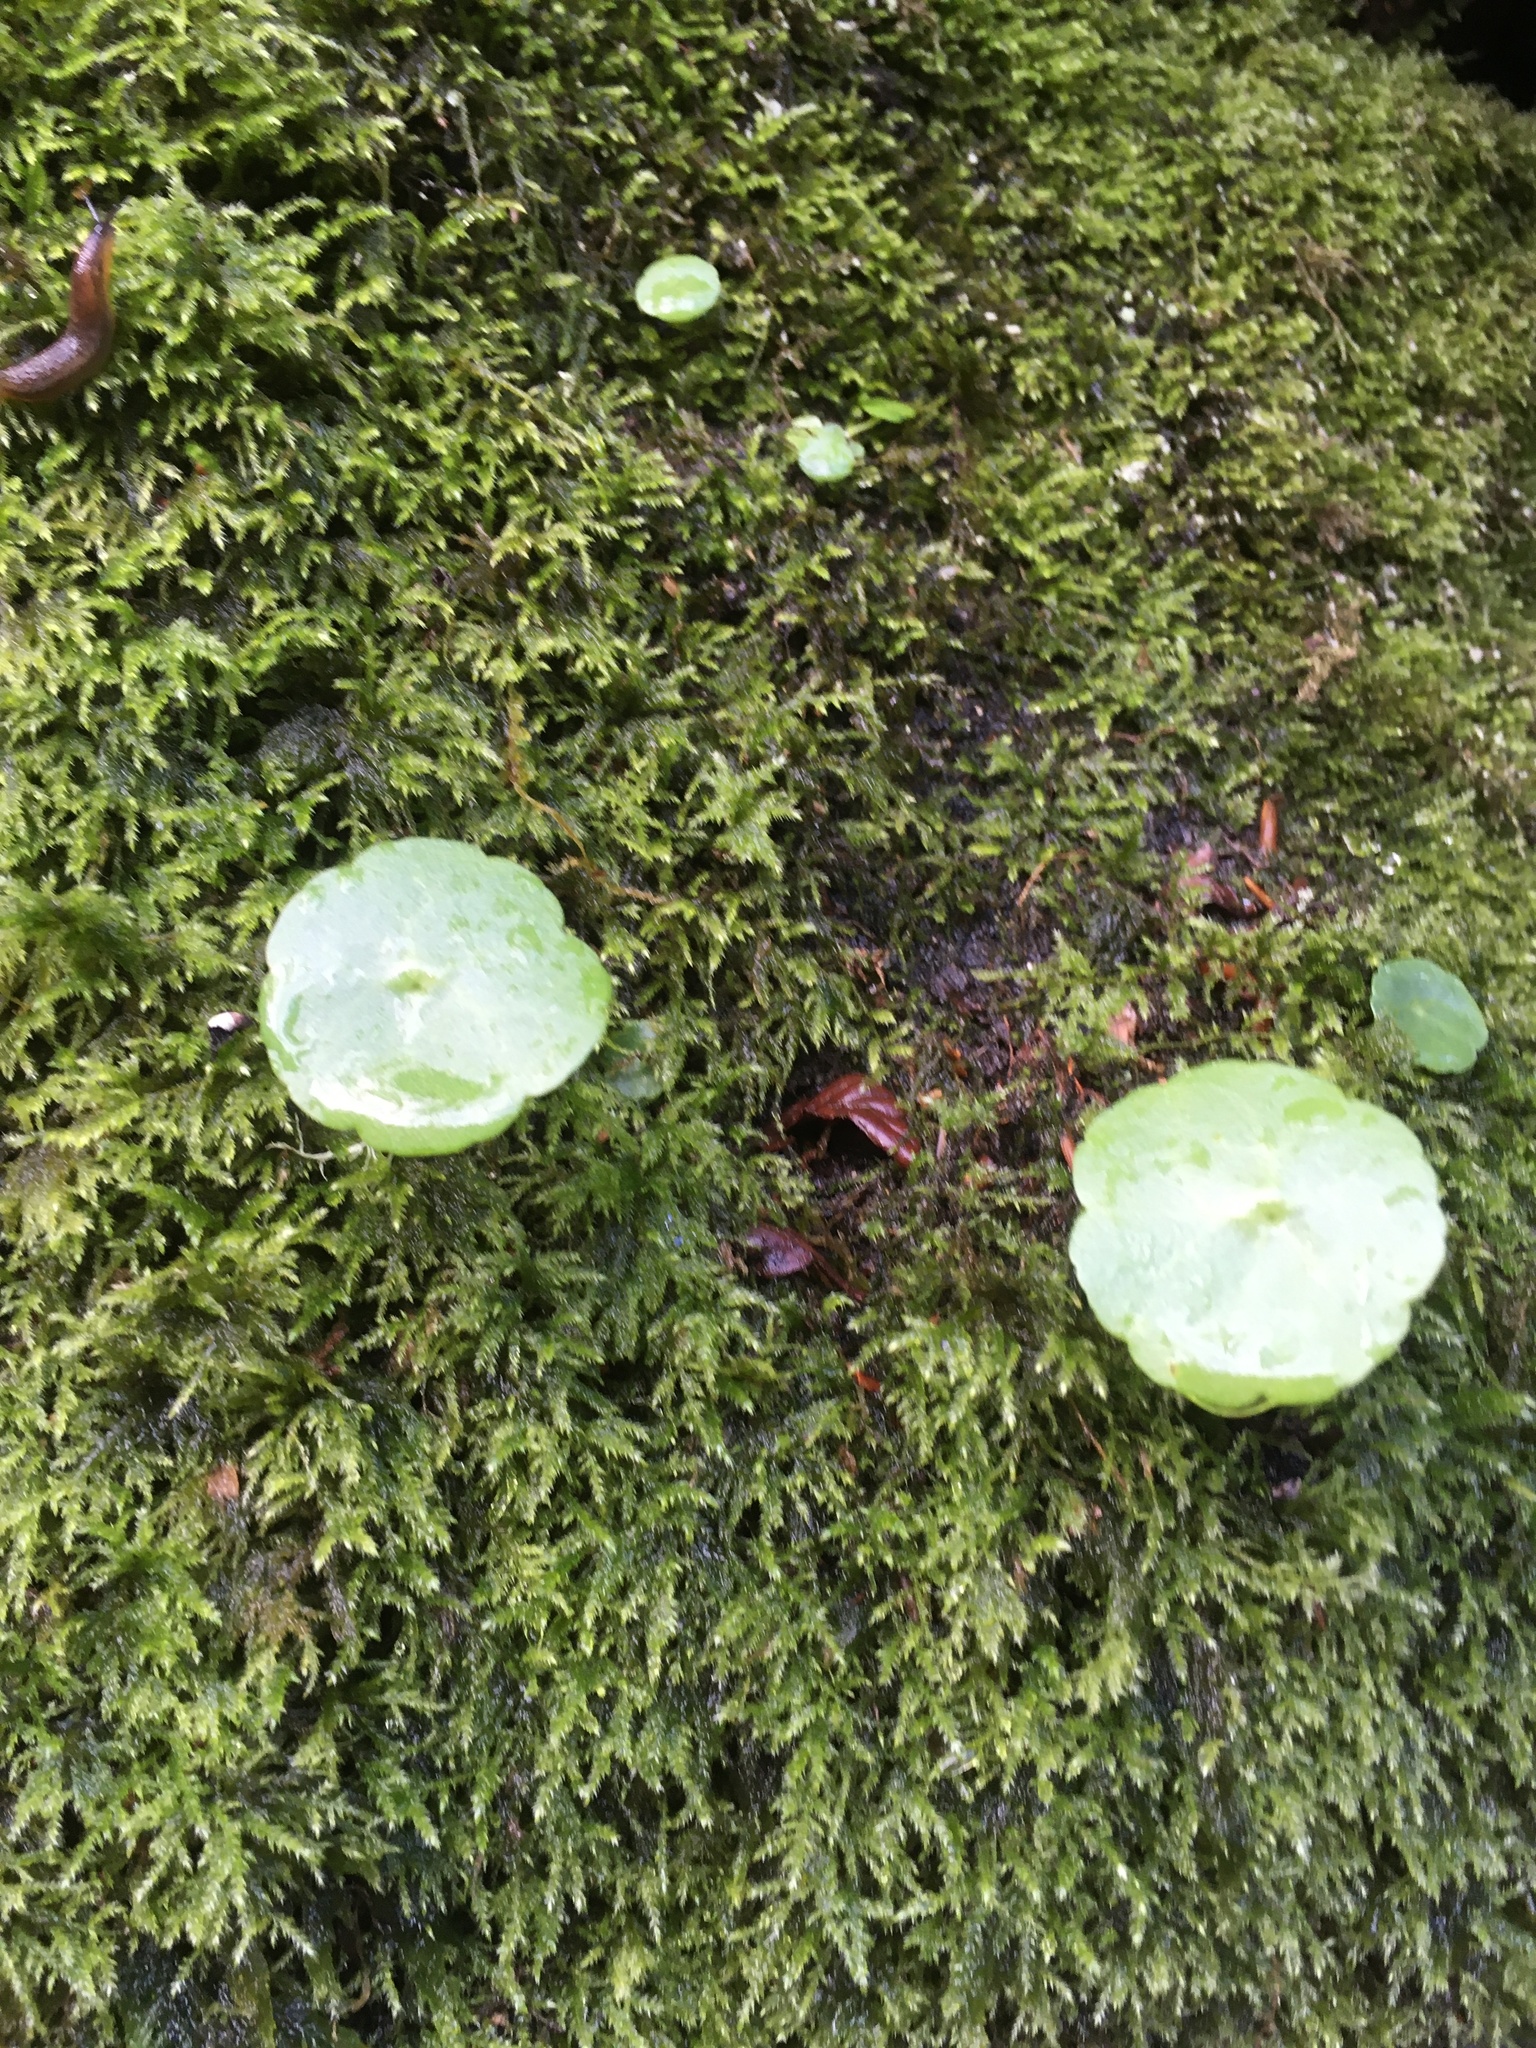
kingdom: Plantae
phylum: Tracheophyta
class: Magnoliopsida
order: Saxifragales
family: Crassulaceae
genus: Umbilicus
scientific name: Umbilicus rupestris
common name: Navelwort
